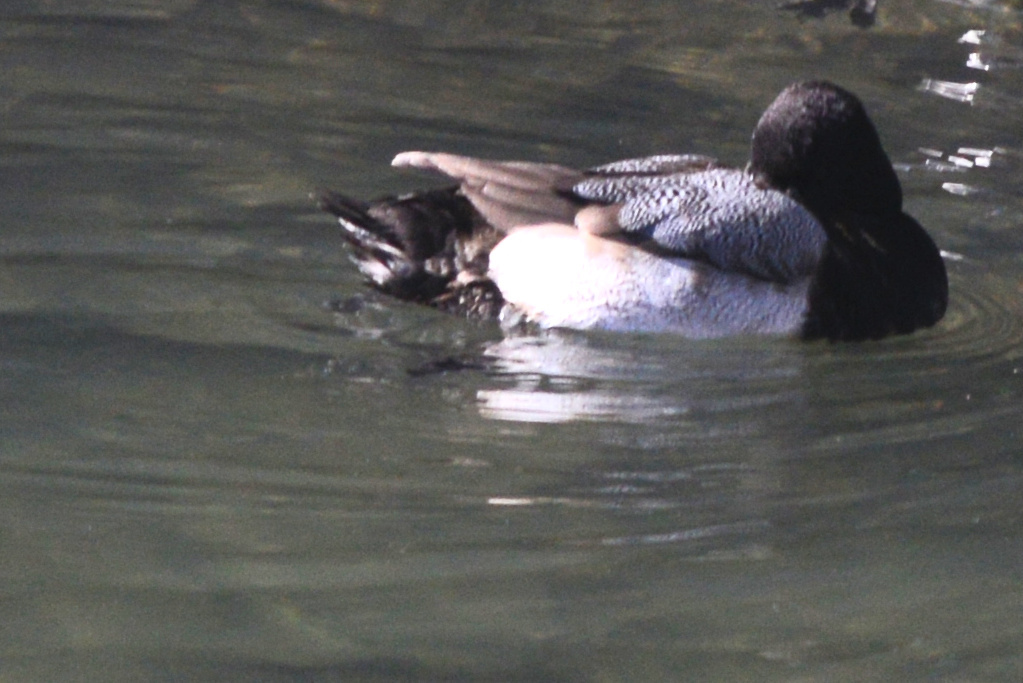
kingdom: Animalia
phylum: Chordata
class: Aves
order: Anseriformes
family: Anatidae
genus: Aythya
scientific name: Aythya affinis
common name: Lesser scaup
